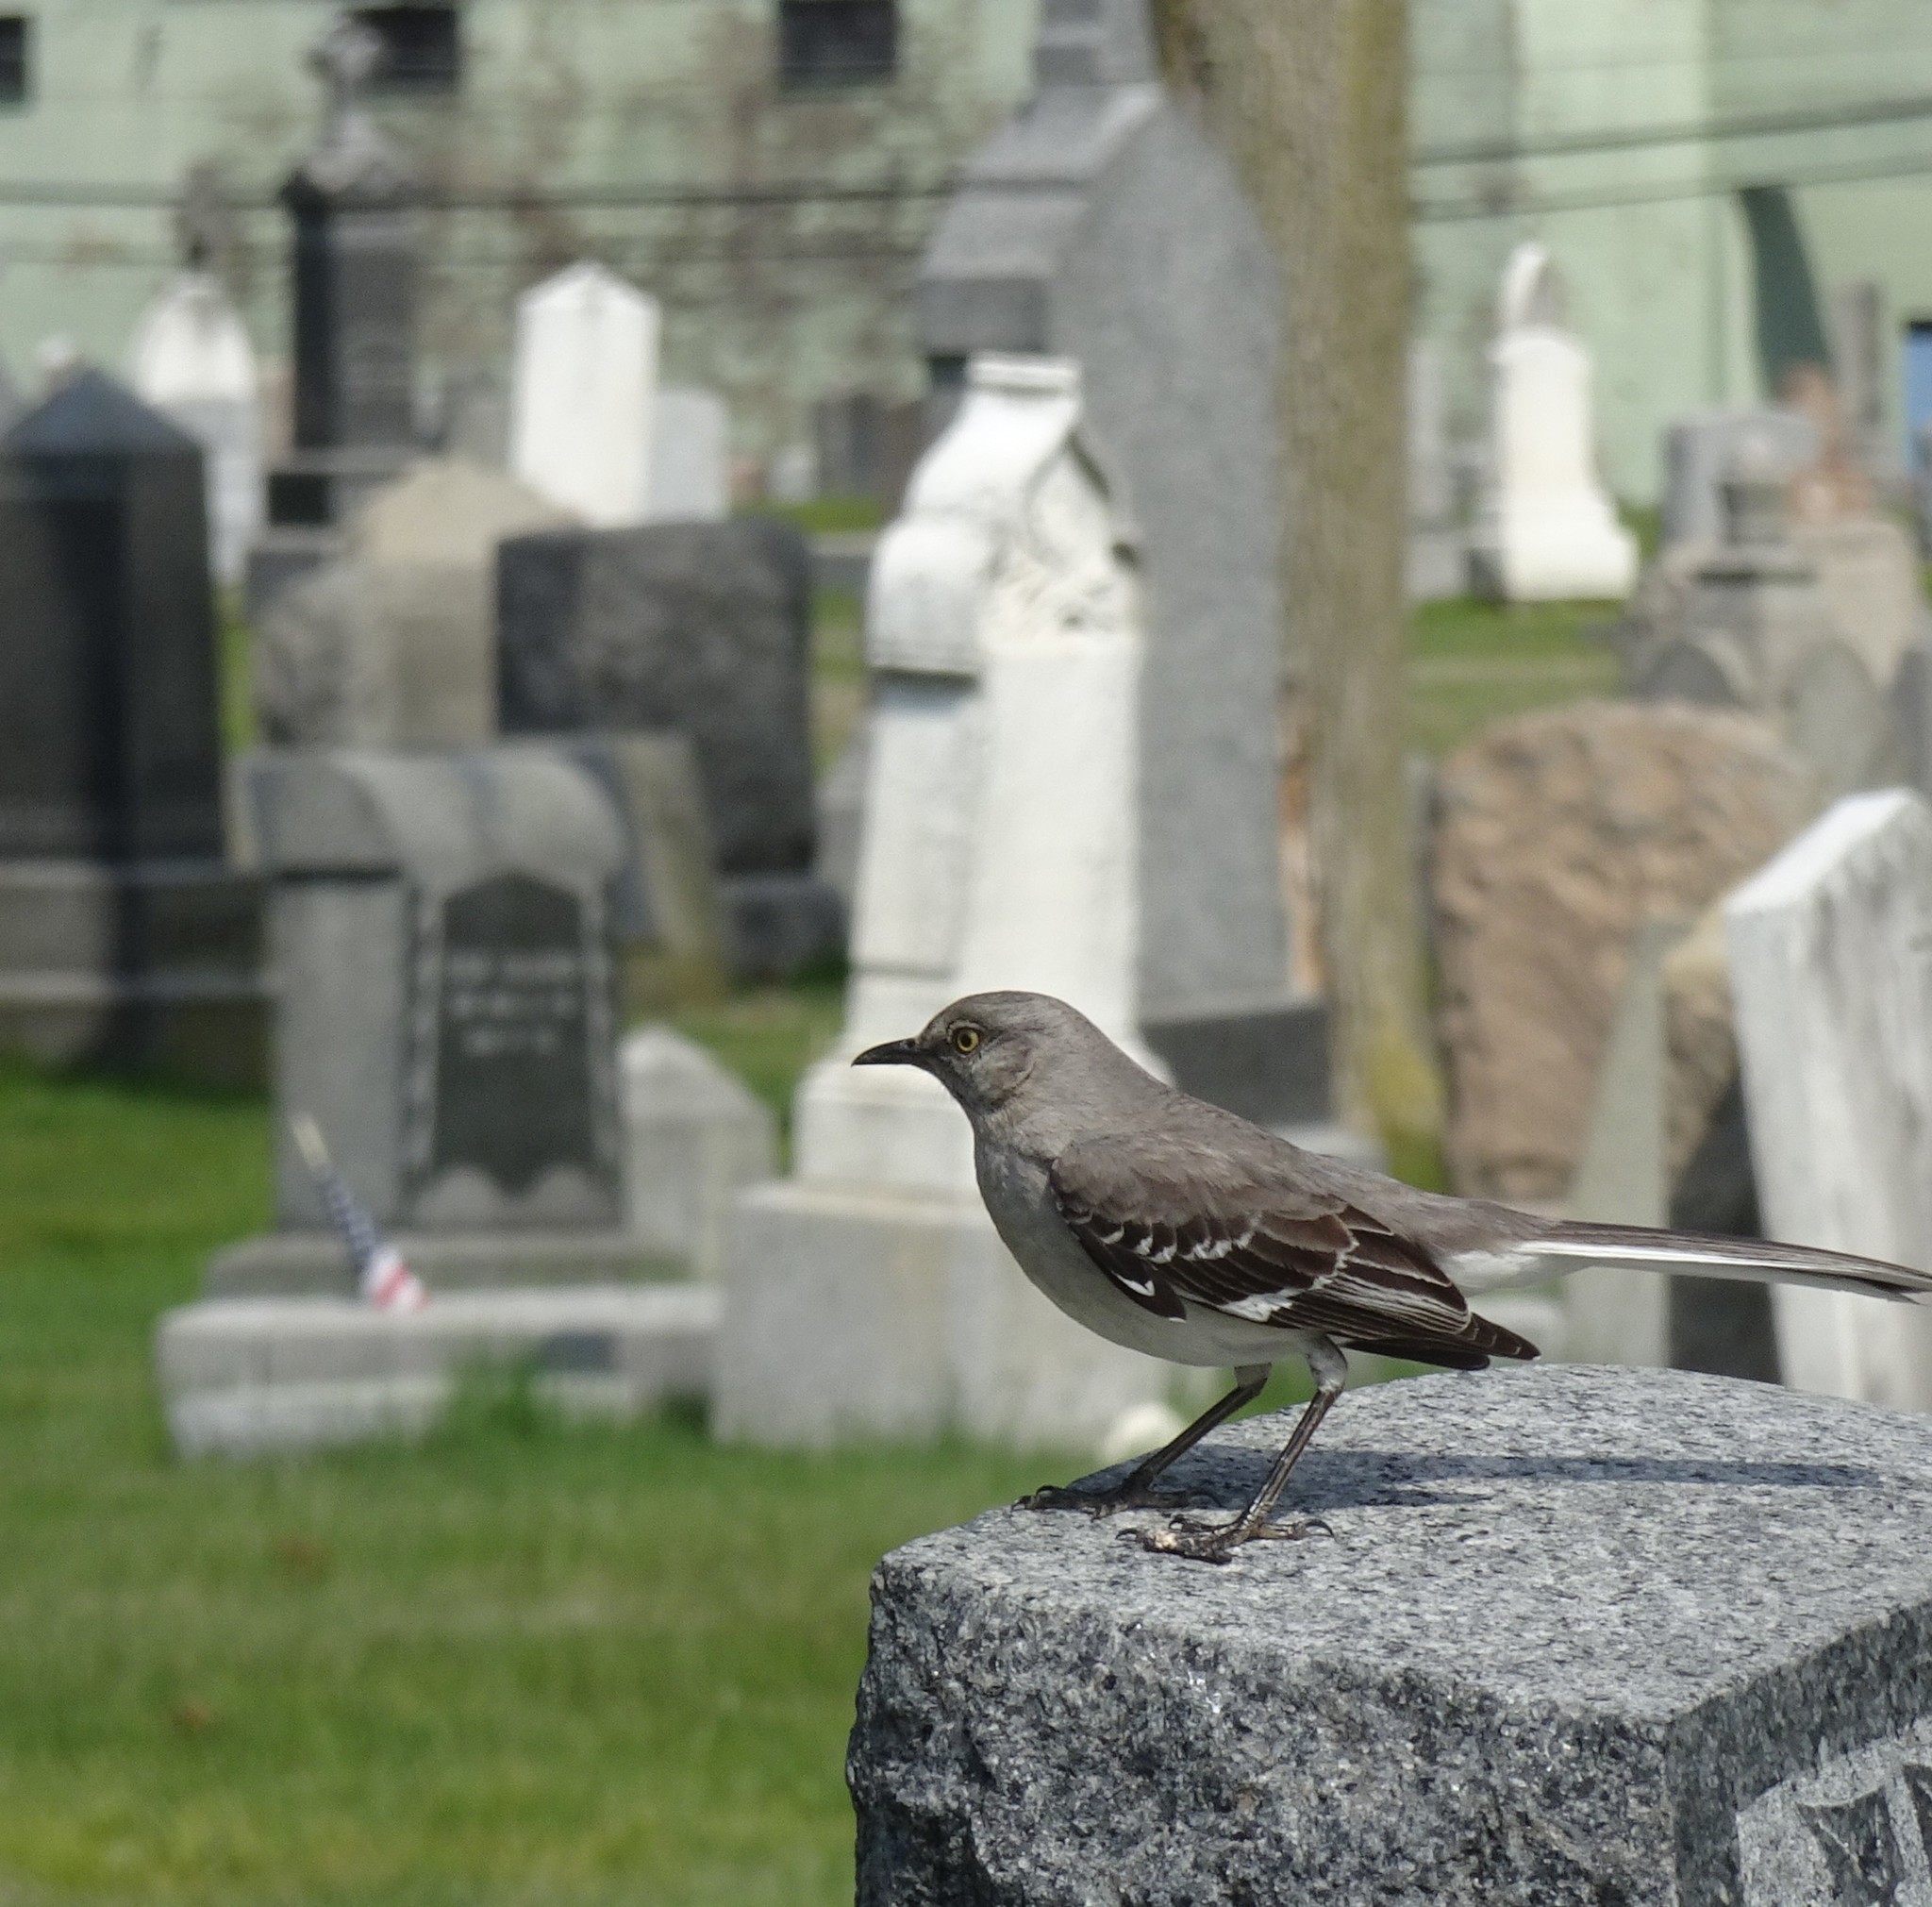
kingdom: Animalia
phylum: Chordata
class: Aves
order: Passeriformes
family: Mimidae
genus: Mimus
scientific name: Mimus polyglottos
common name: Northern mockingbird
